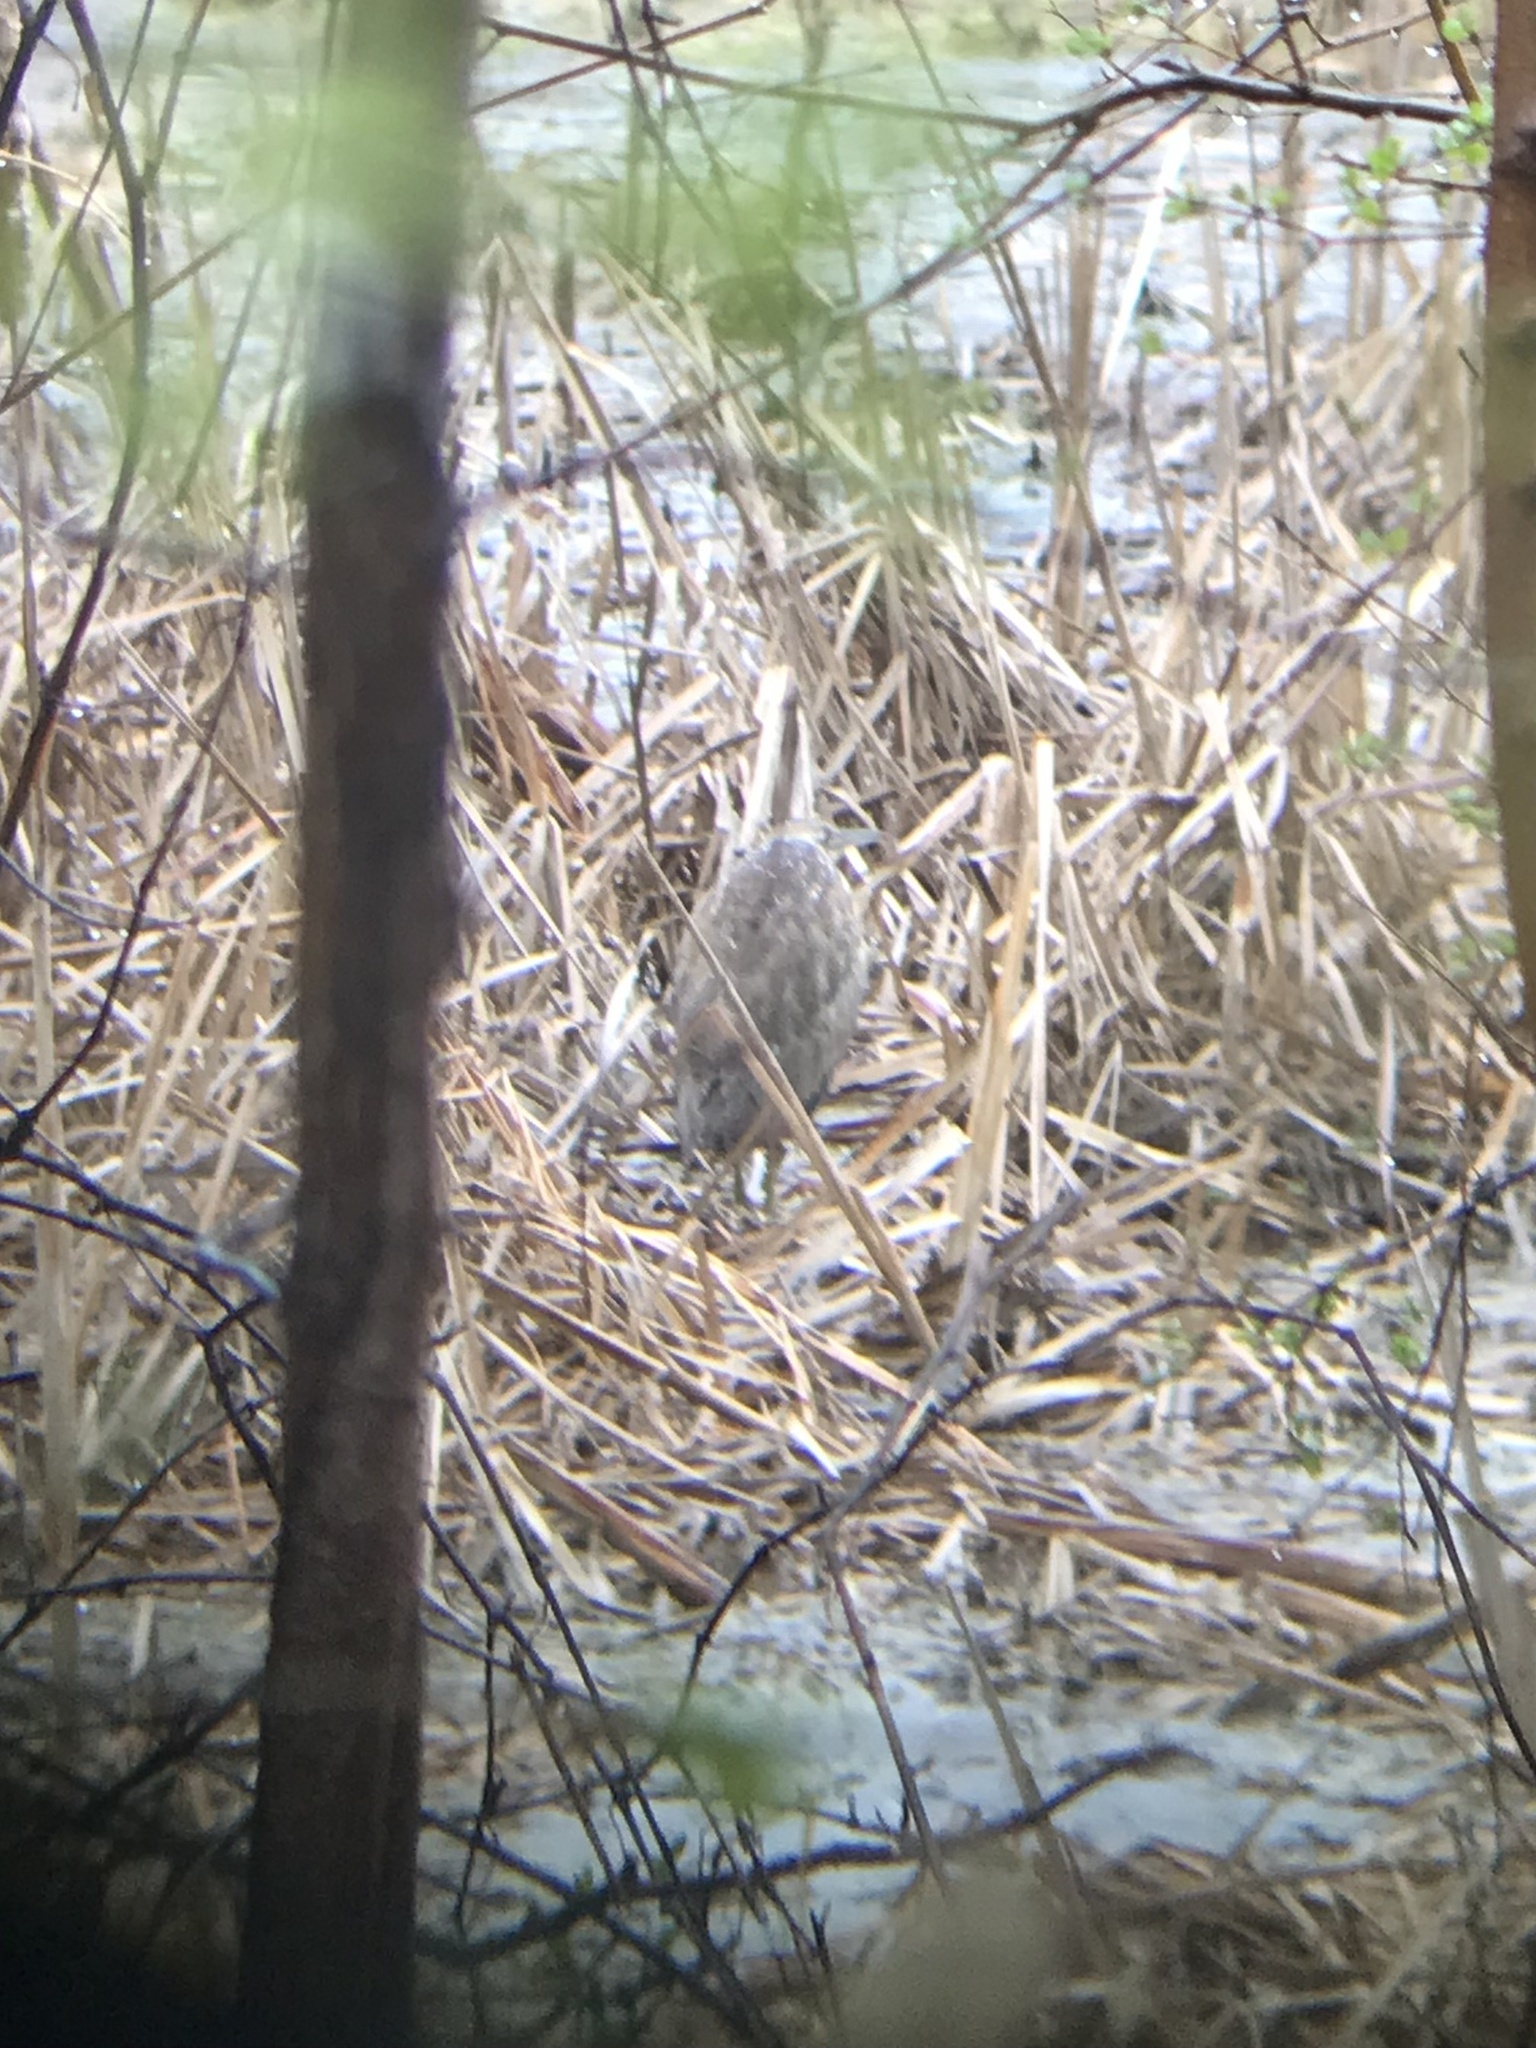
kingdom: Animalia
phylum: Chordata
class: Aves
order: Pelecaniformes
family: Ardeidae
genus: Botaurus
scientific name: Botaurus lentiginosus
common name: American bittern
